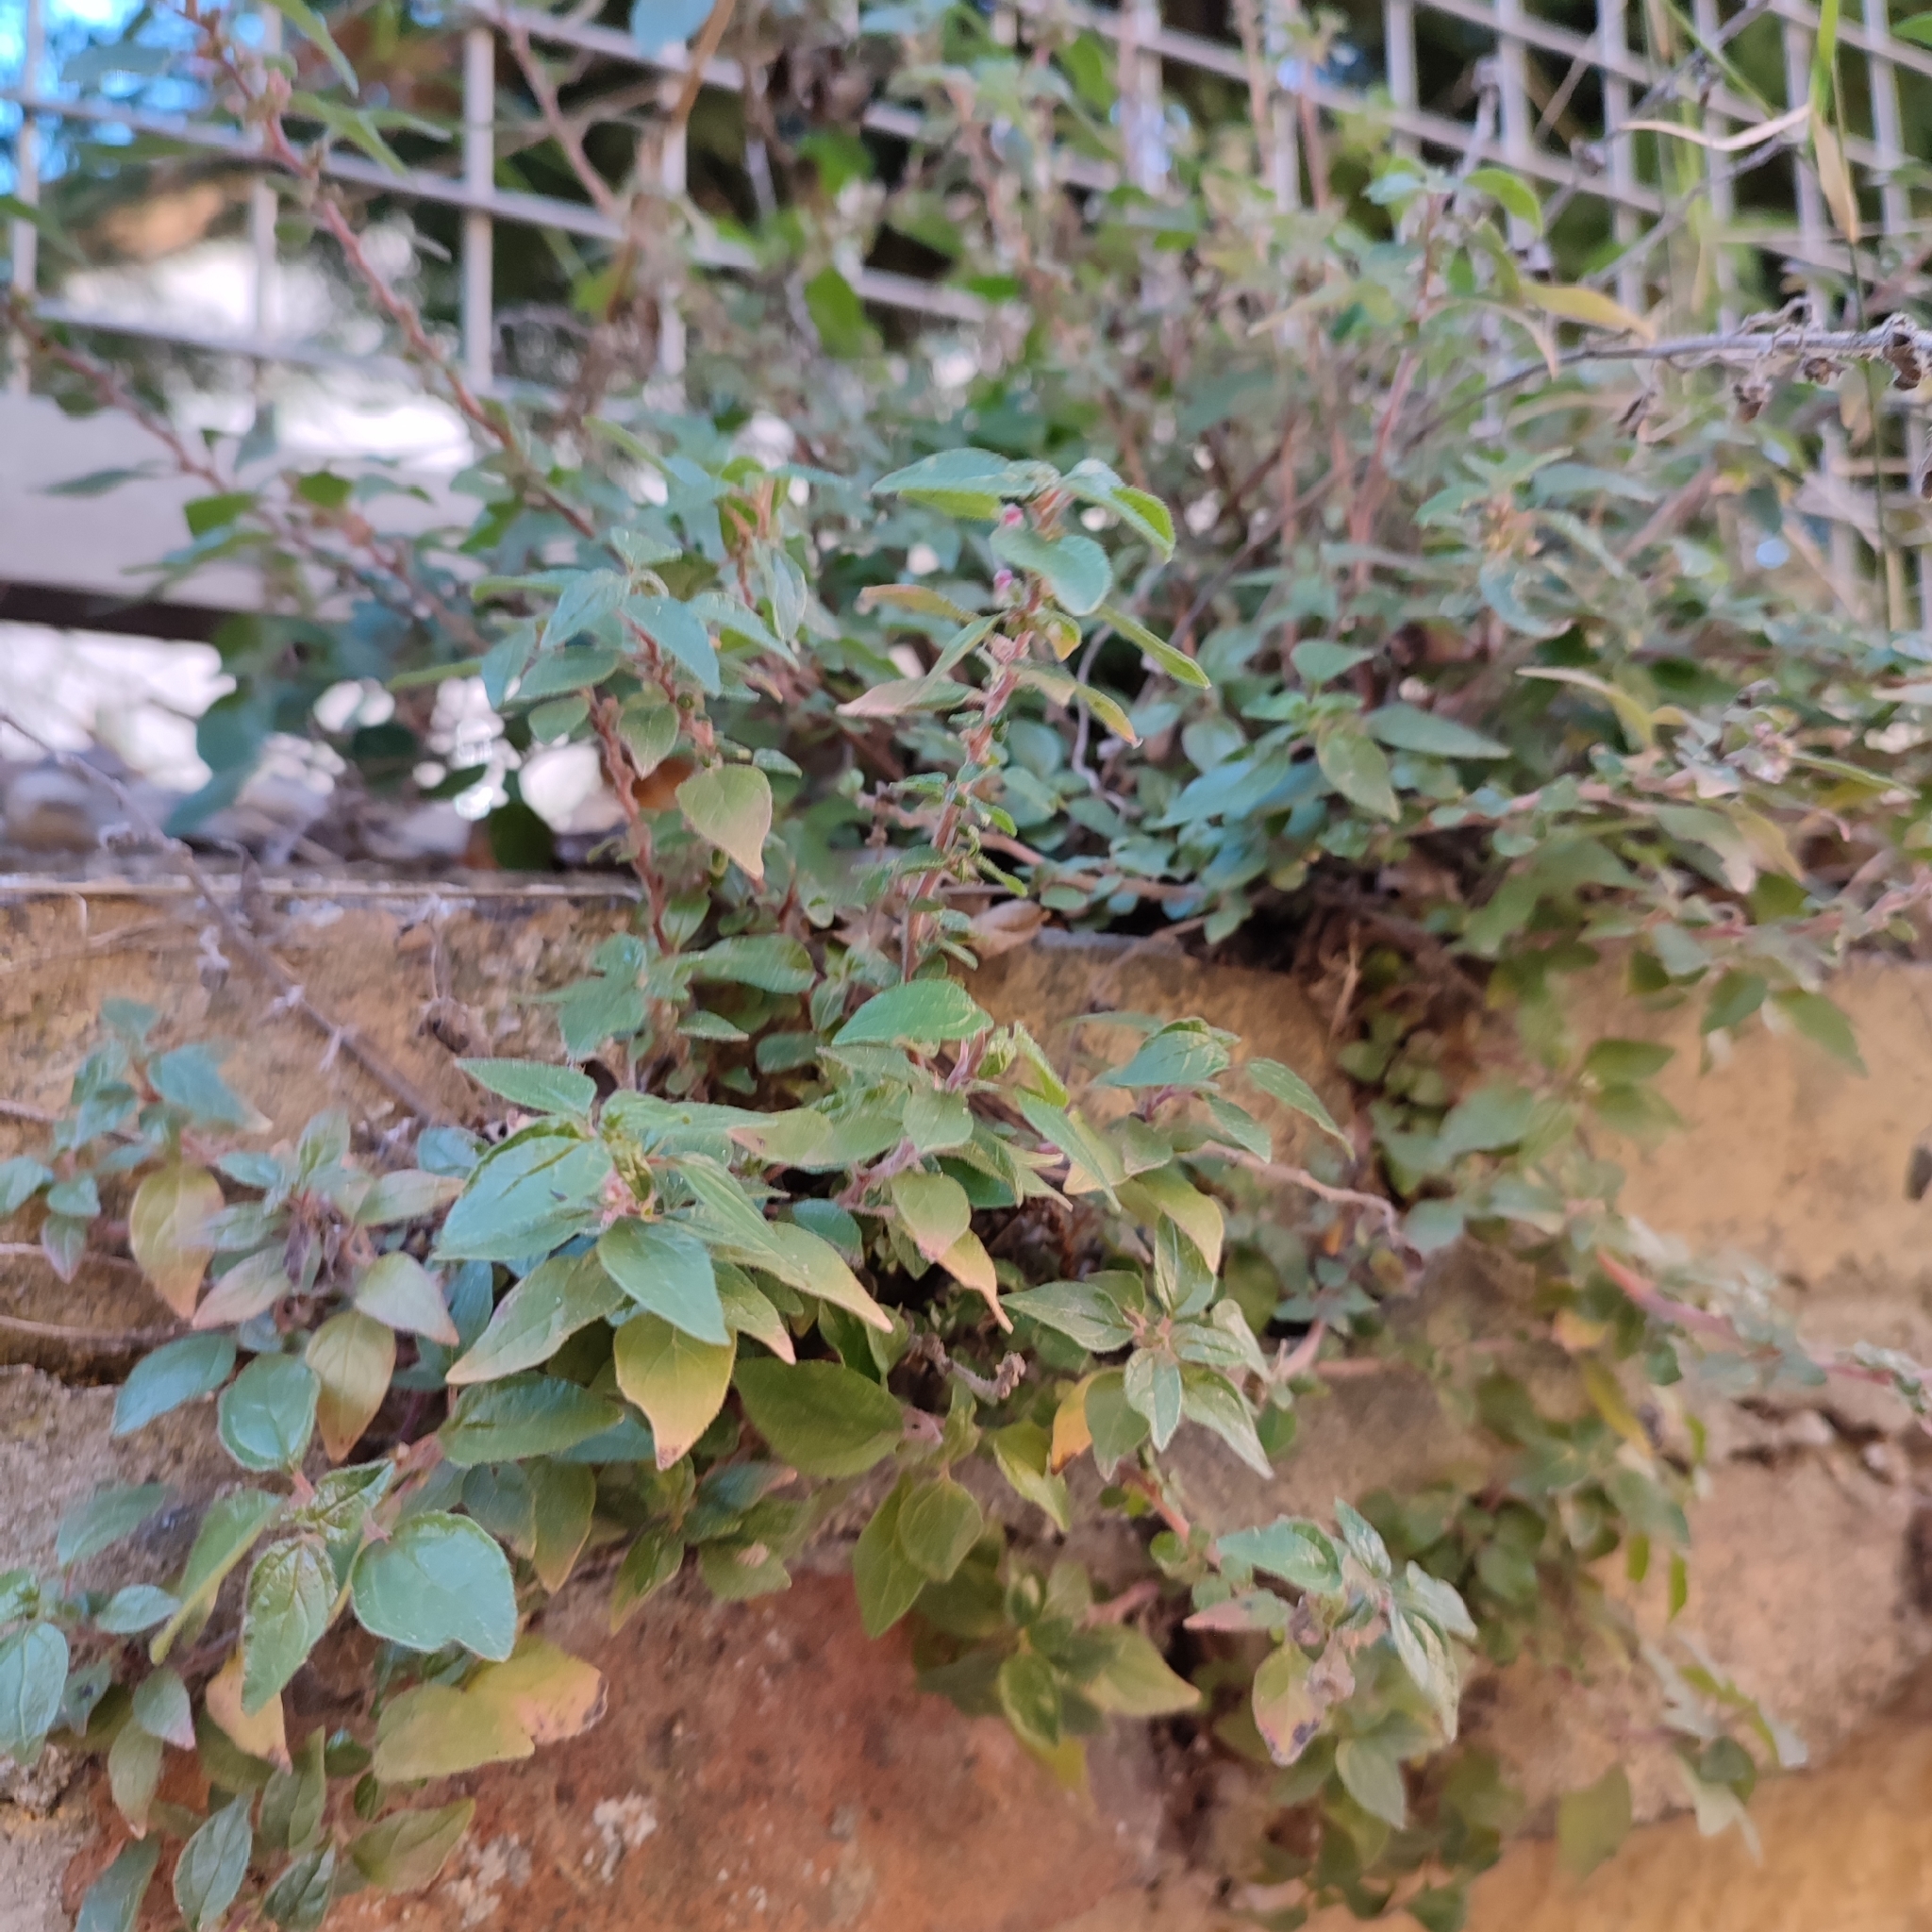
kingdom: Plantae
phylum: Tracheophyta
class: Magnoliopsida
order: Rosales
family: Urticaceae
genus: Parietaria
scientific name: Parietaria judaica
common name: Pellitory-of-the-wall
